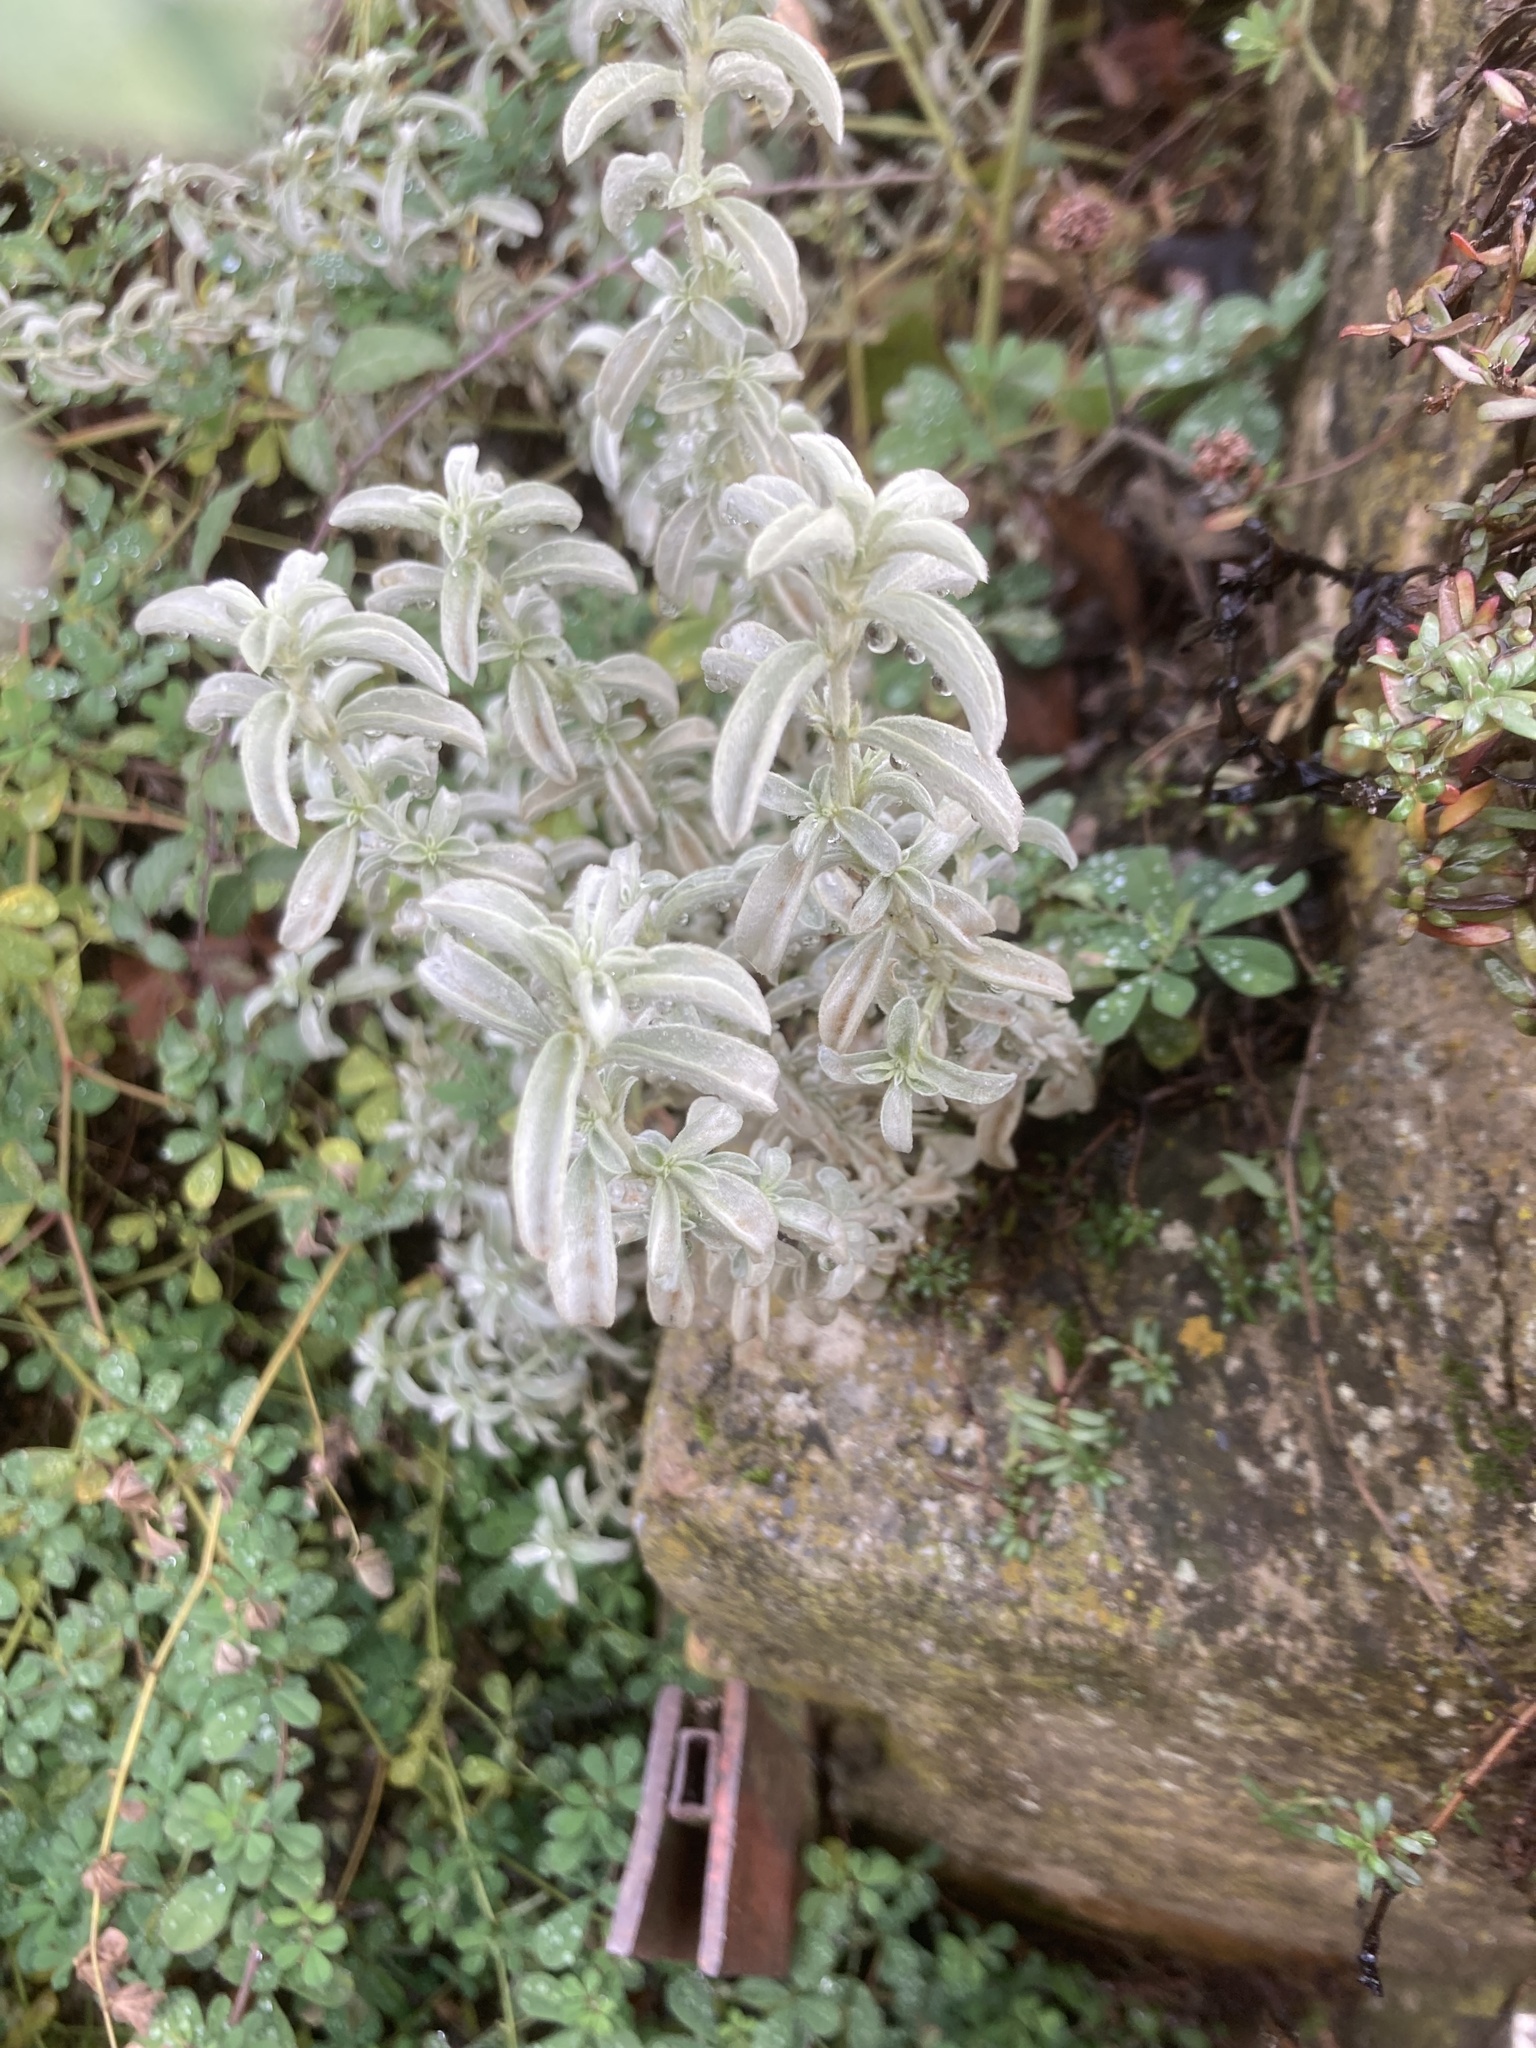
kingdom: Plantae
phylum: Tracheophyta
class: Magnoliopsida
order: Malpighiales
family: Euphorbiaceae
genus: Mercurialis
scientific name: Mercurialis tomentosa
